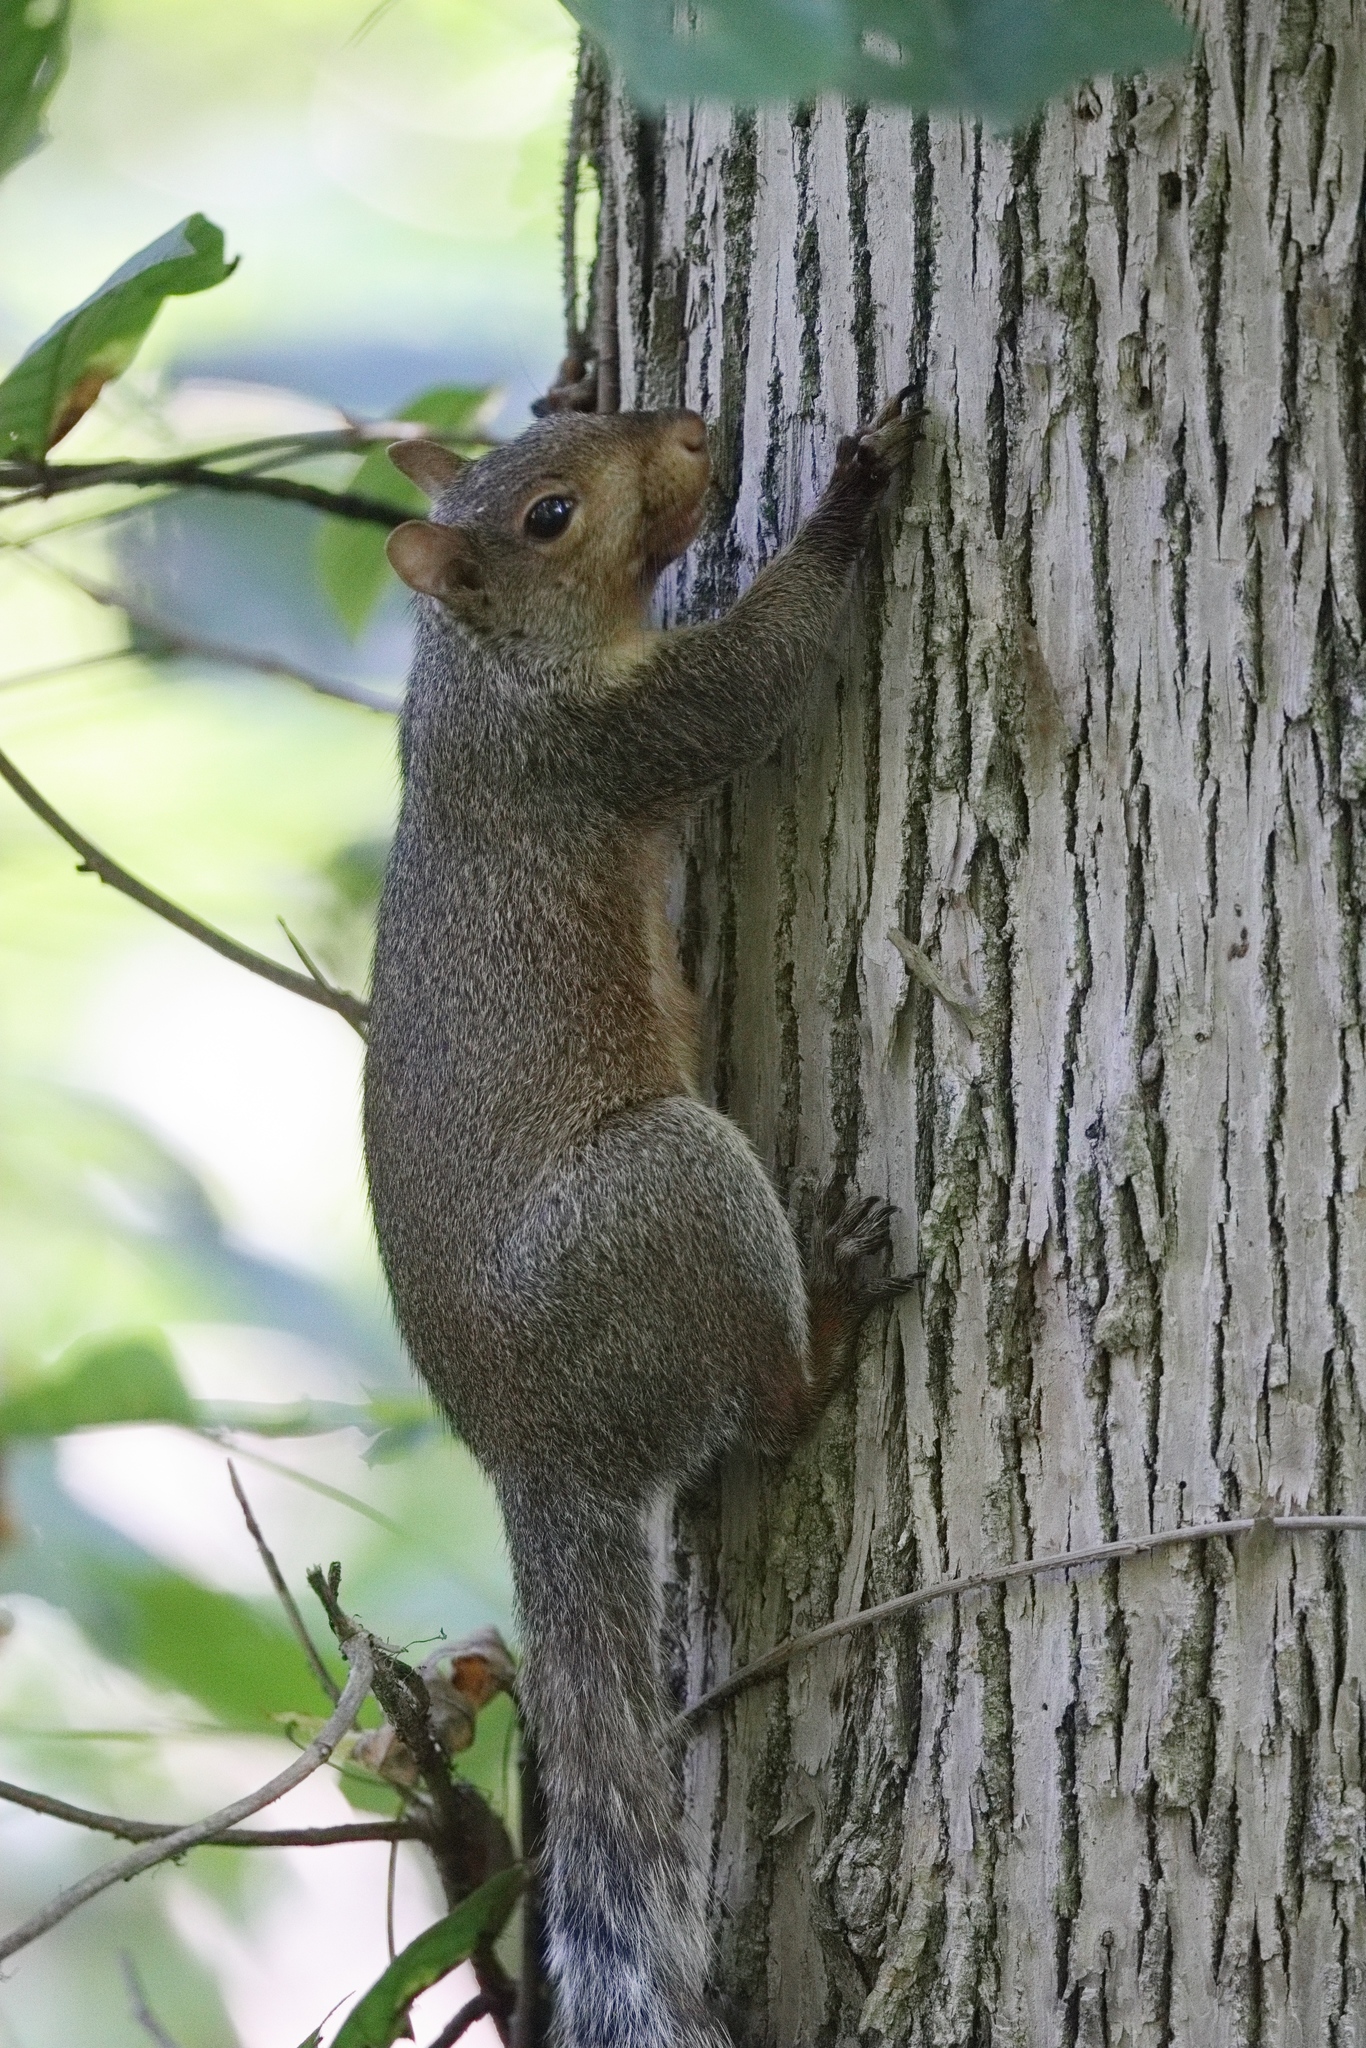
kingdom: Animalia
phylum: Chordata
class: Mammalia
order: Rodentia
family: Sciuridae
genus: Sciurus
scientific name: Sciurus carolinensis
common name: Eastern gray squirrel
